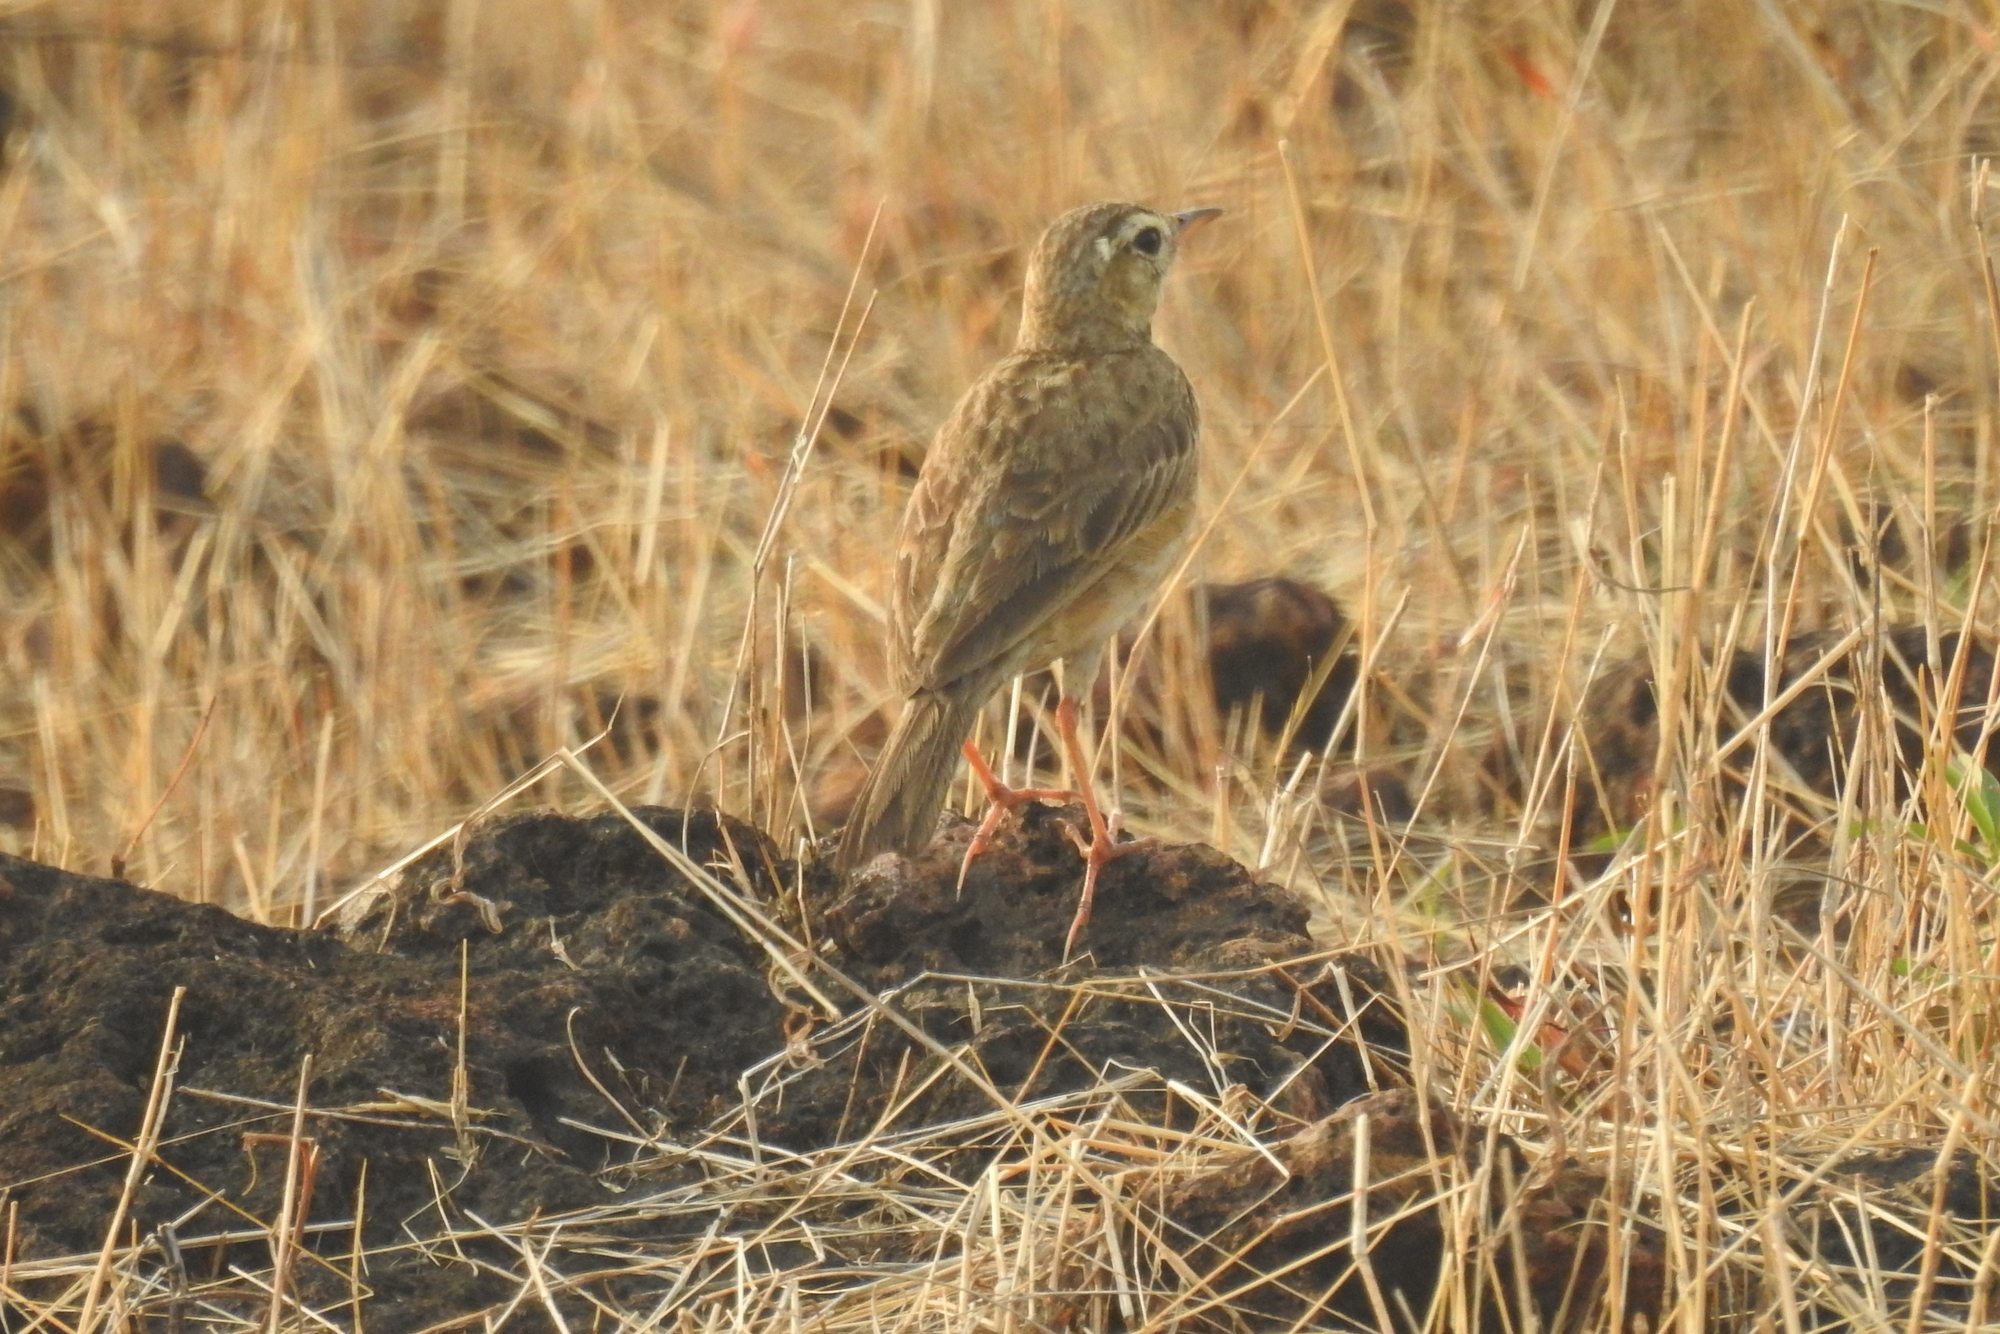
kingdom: Animalia
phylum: Chordata
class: Aves
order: Passeriformes
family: Motacillidae
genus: Anthus
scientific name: Anthus rufulus
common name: Paddyfield pipit
